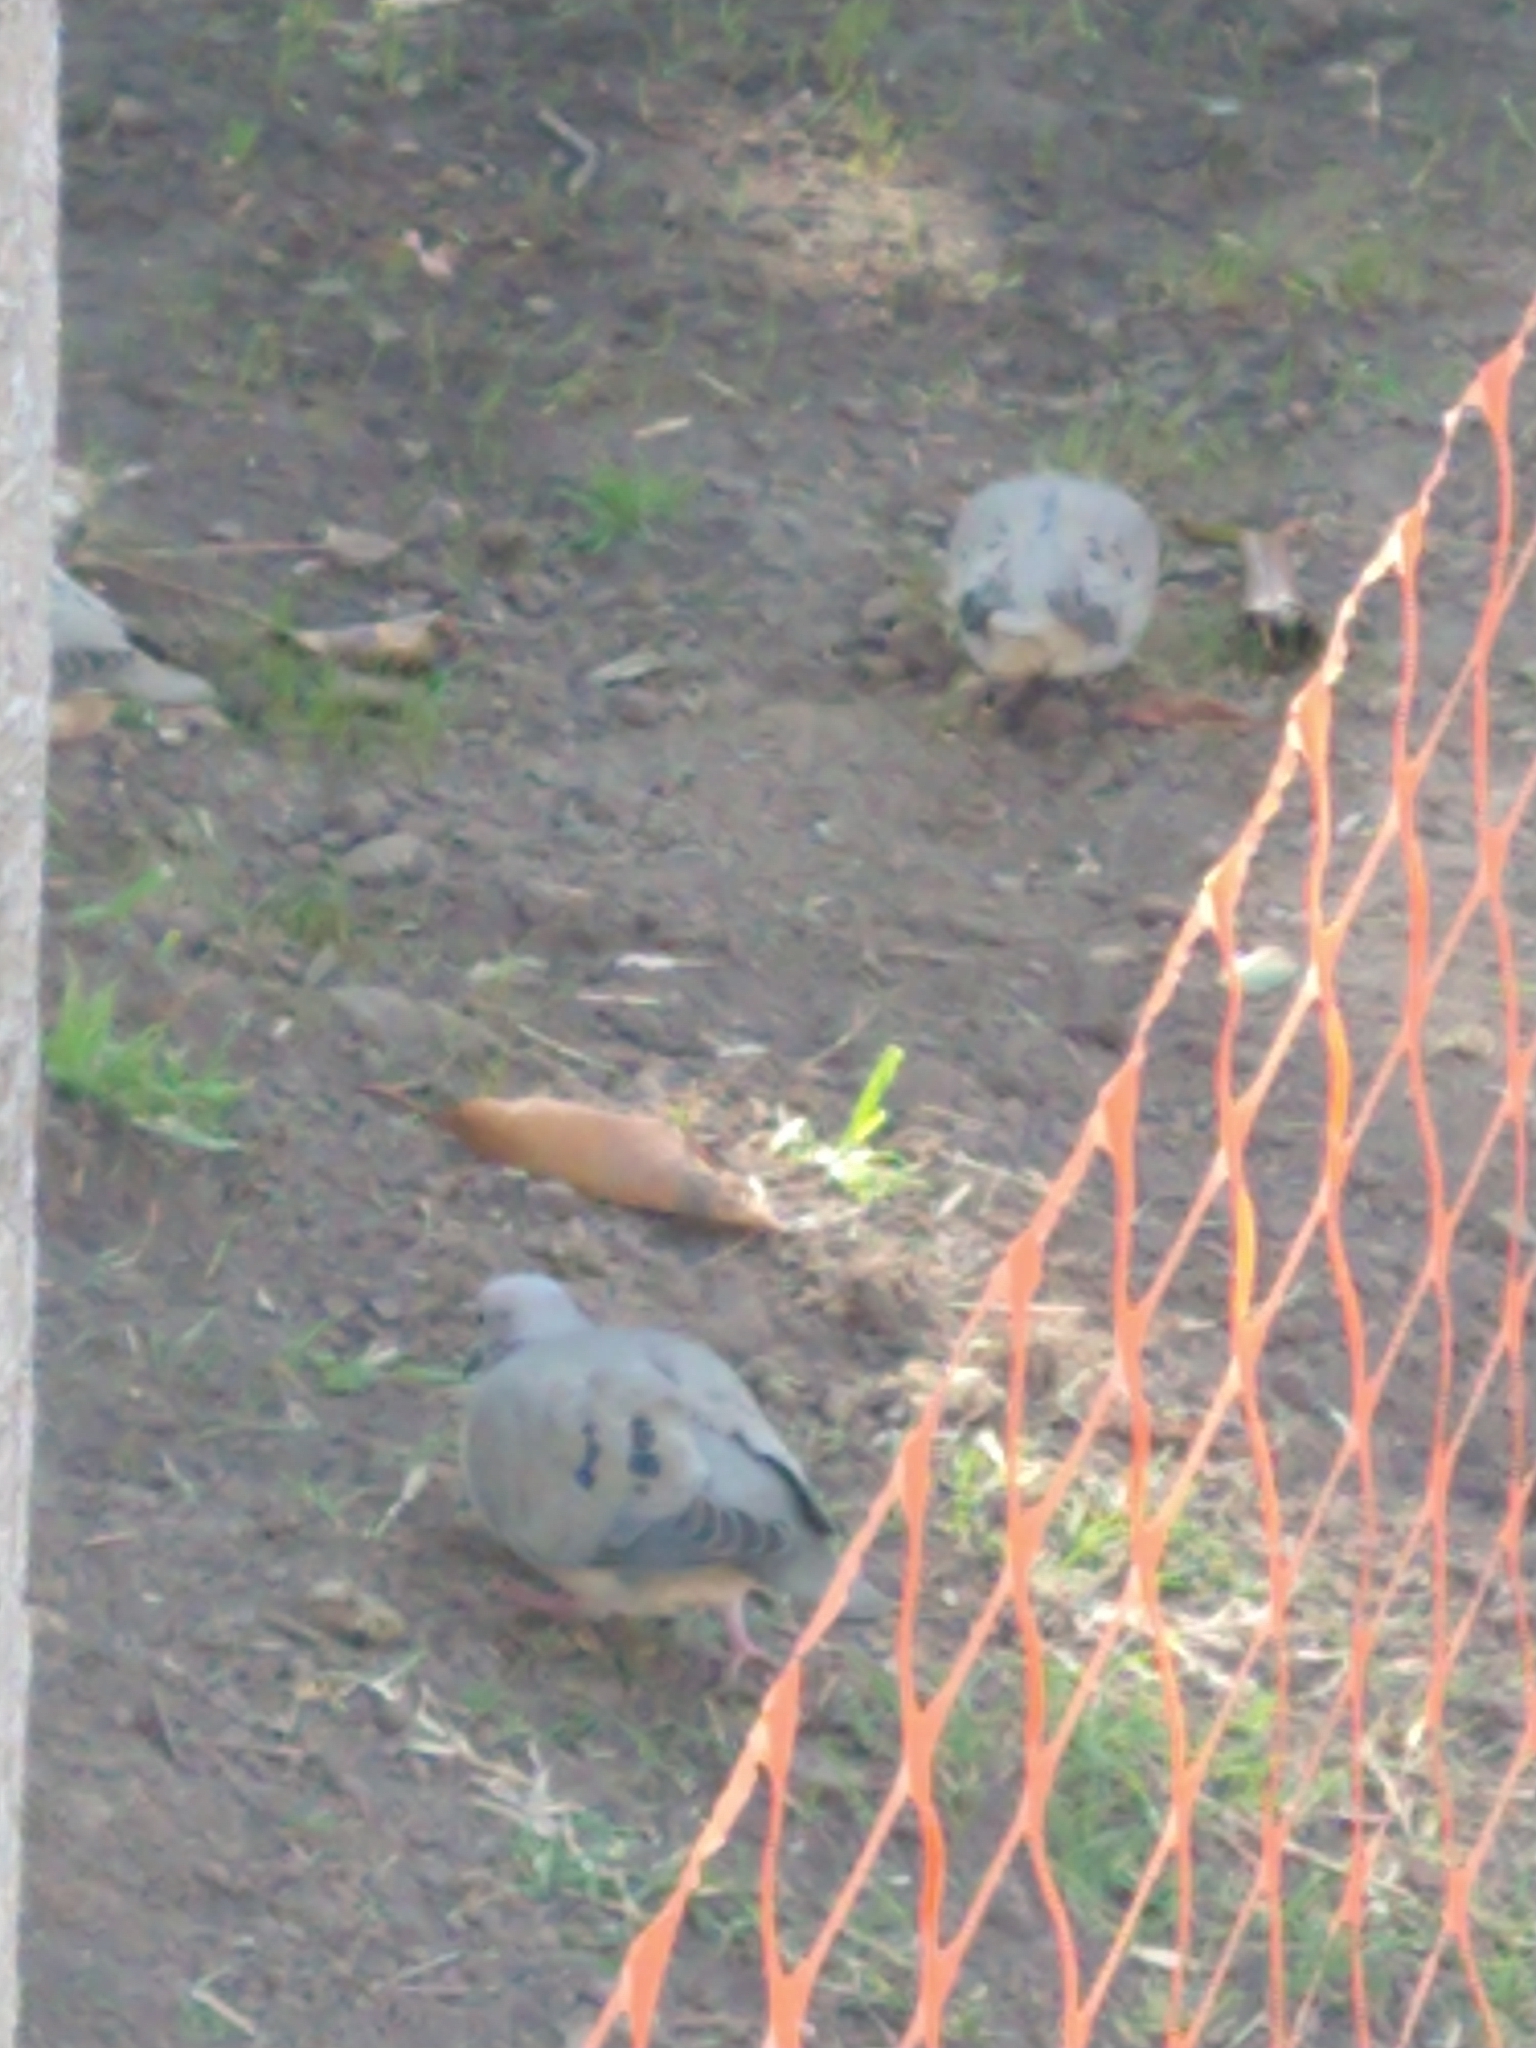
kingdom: Animalia
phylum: Chordata
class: Aves
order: Columbiformes
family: Columbidae
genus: Zenaida
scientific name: Zenaida auriculata
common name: Eared dove
